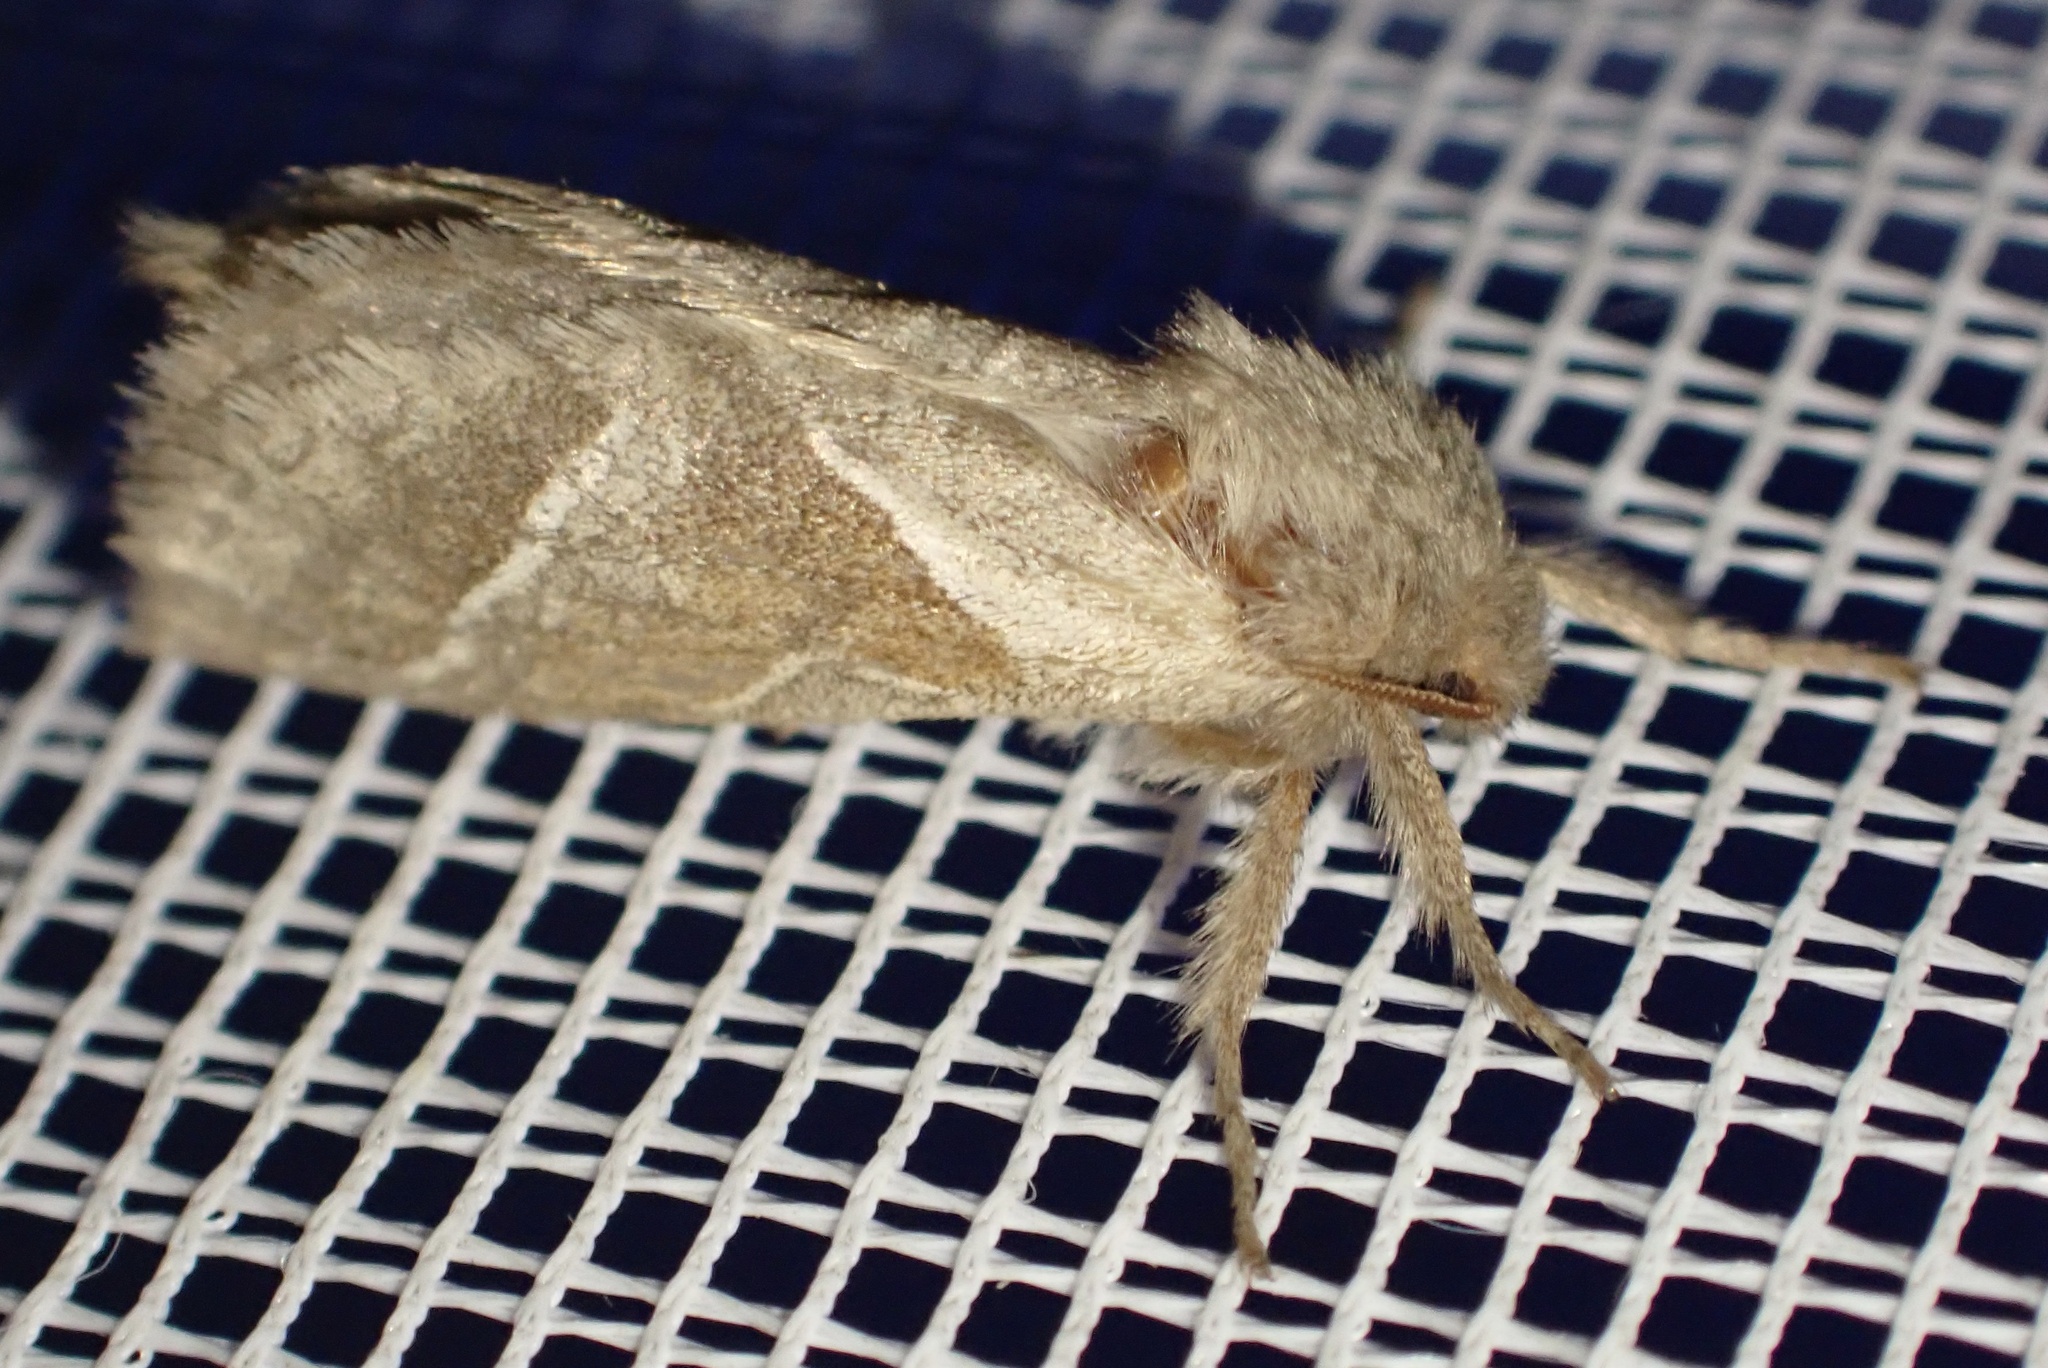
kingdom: Animalia
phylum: Arthropoda
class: Insecta
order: Lepidoptera
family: Hepialidae
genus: Triodia
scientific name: Triodia sylvina
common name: Orange swift
